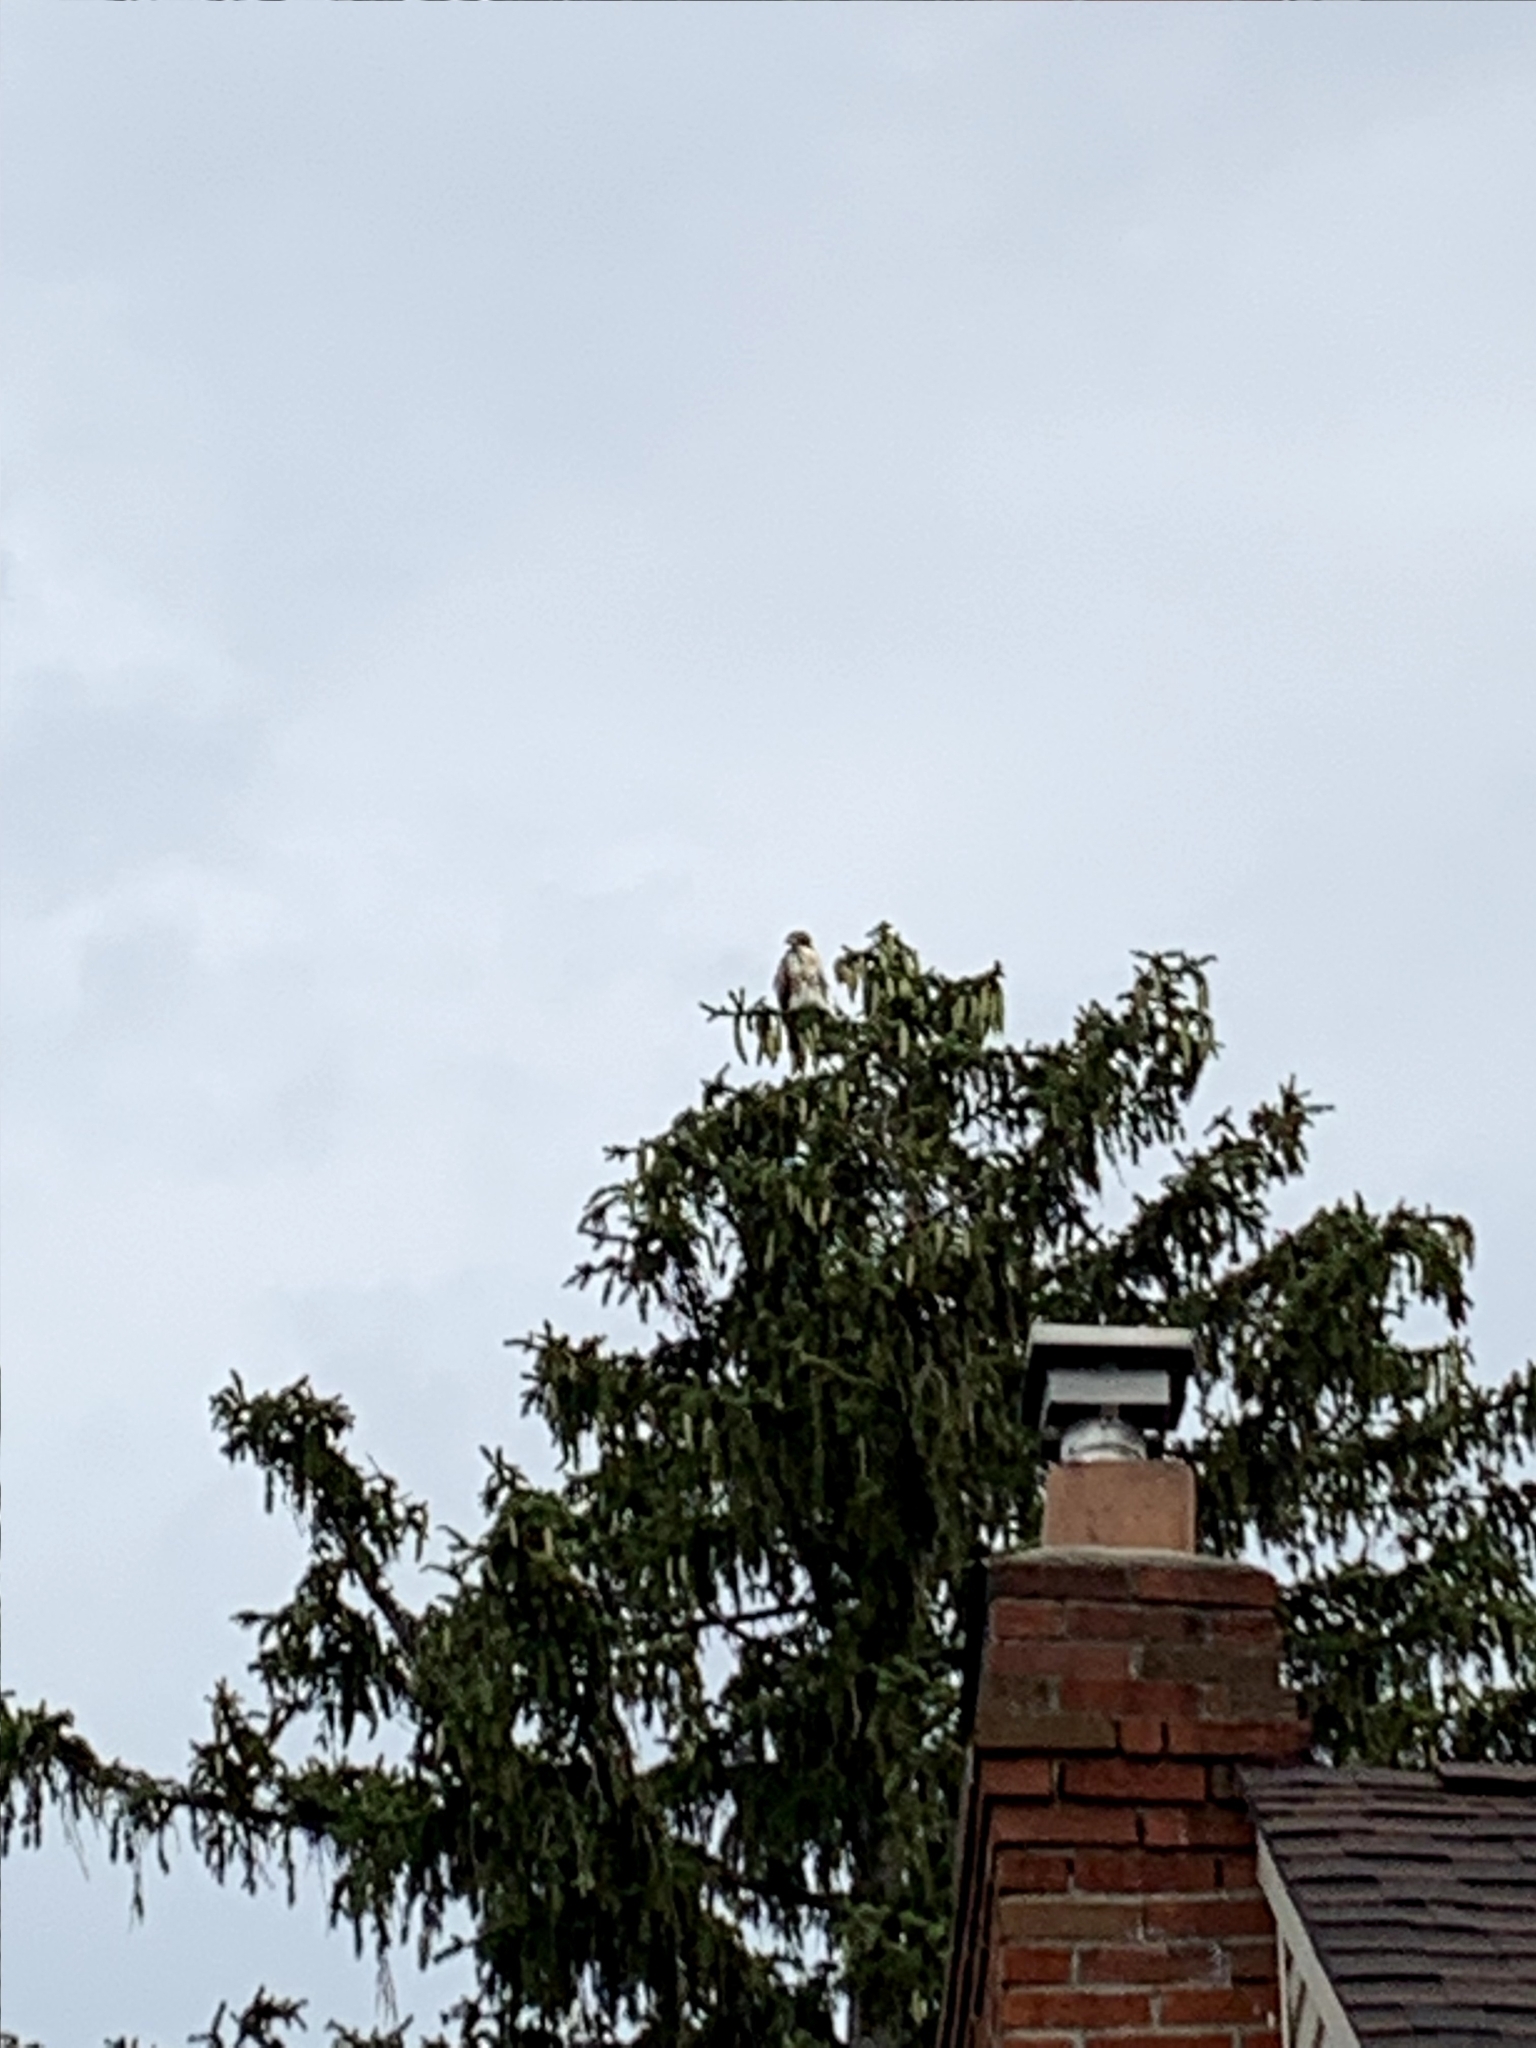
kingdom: Animalia
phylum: Chordata
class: Aves
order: Accipitriformes
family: Accipitridae
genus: Buteo
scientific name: Buteo jamaicensis
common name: Red-tailed hawk
